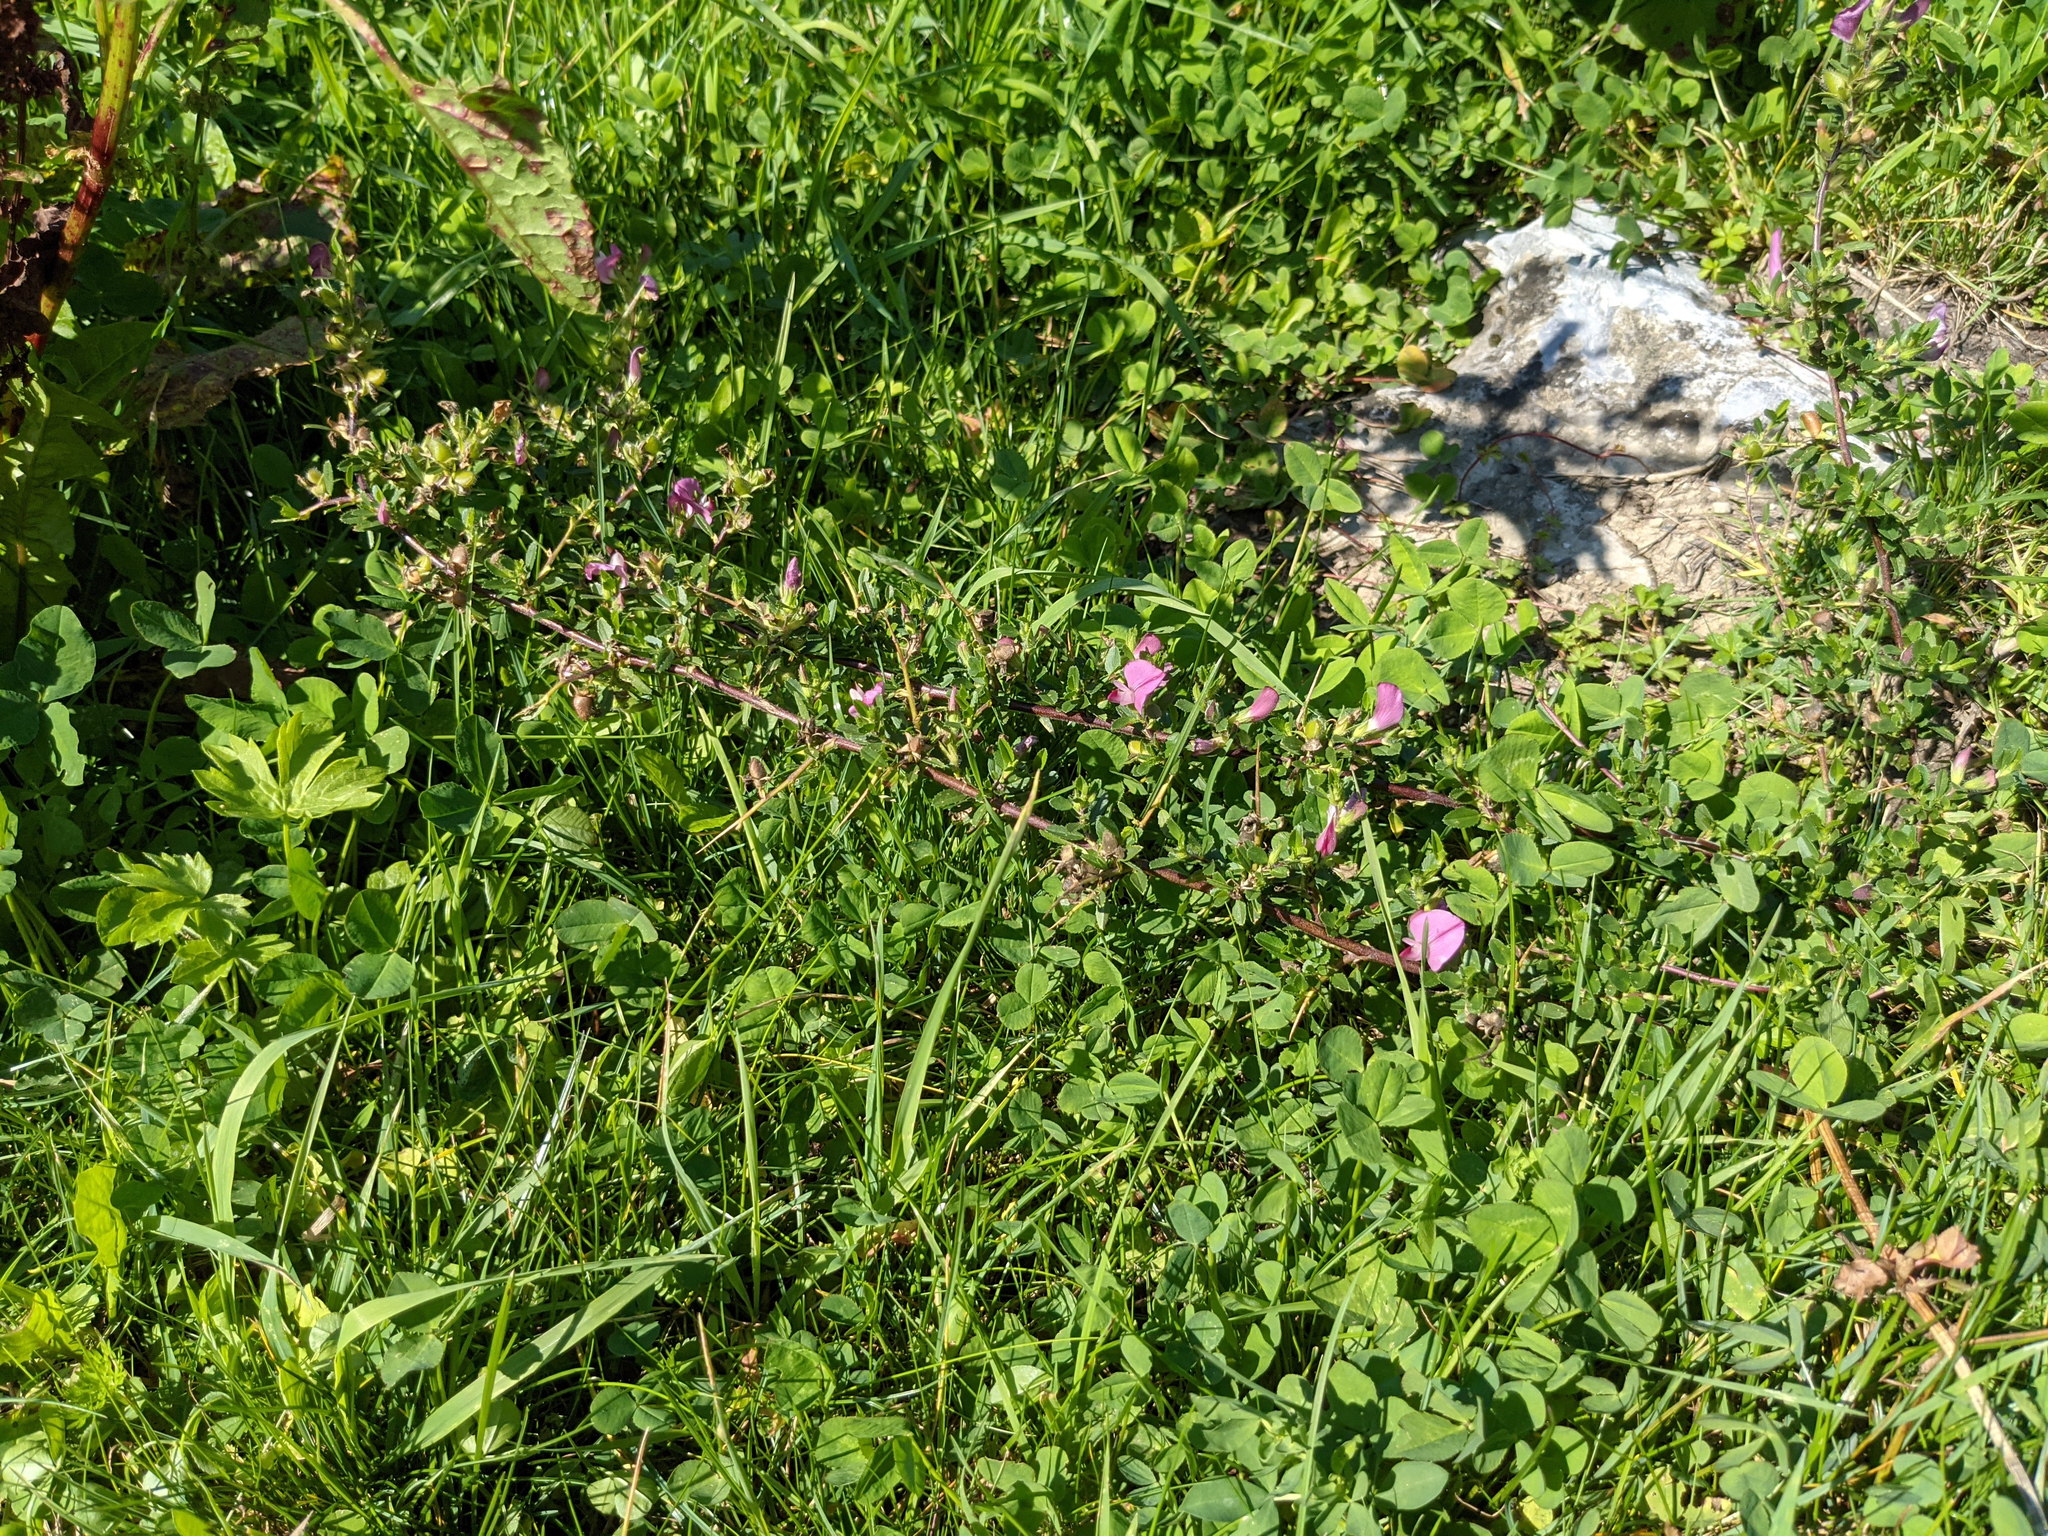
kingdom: Plantae
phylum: Tracheophyta
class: Magnoliopsida
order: Fabales
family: Fabaceae
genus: Ononis
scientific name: Ononis spinosa
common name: Spiny restharrow
